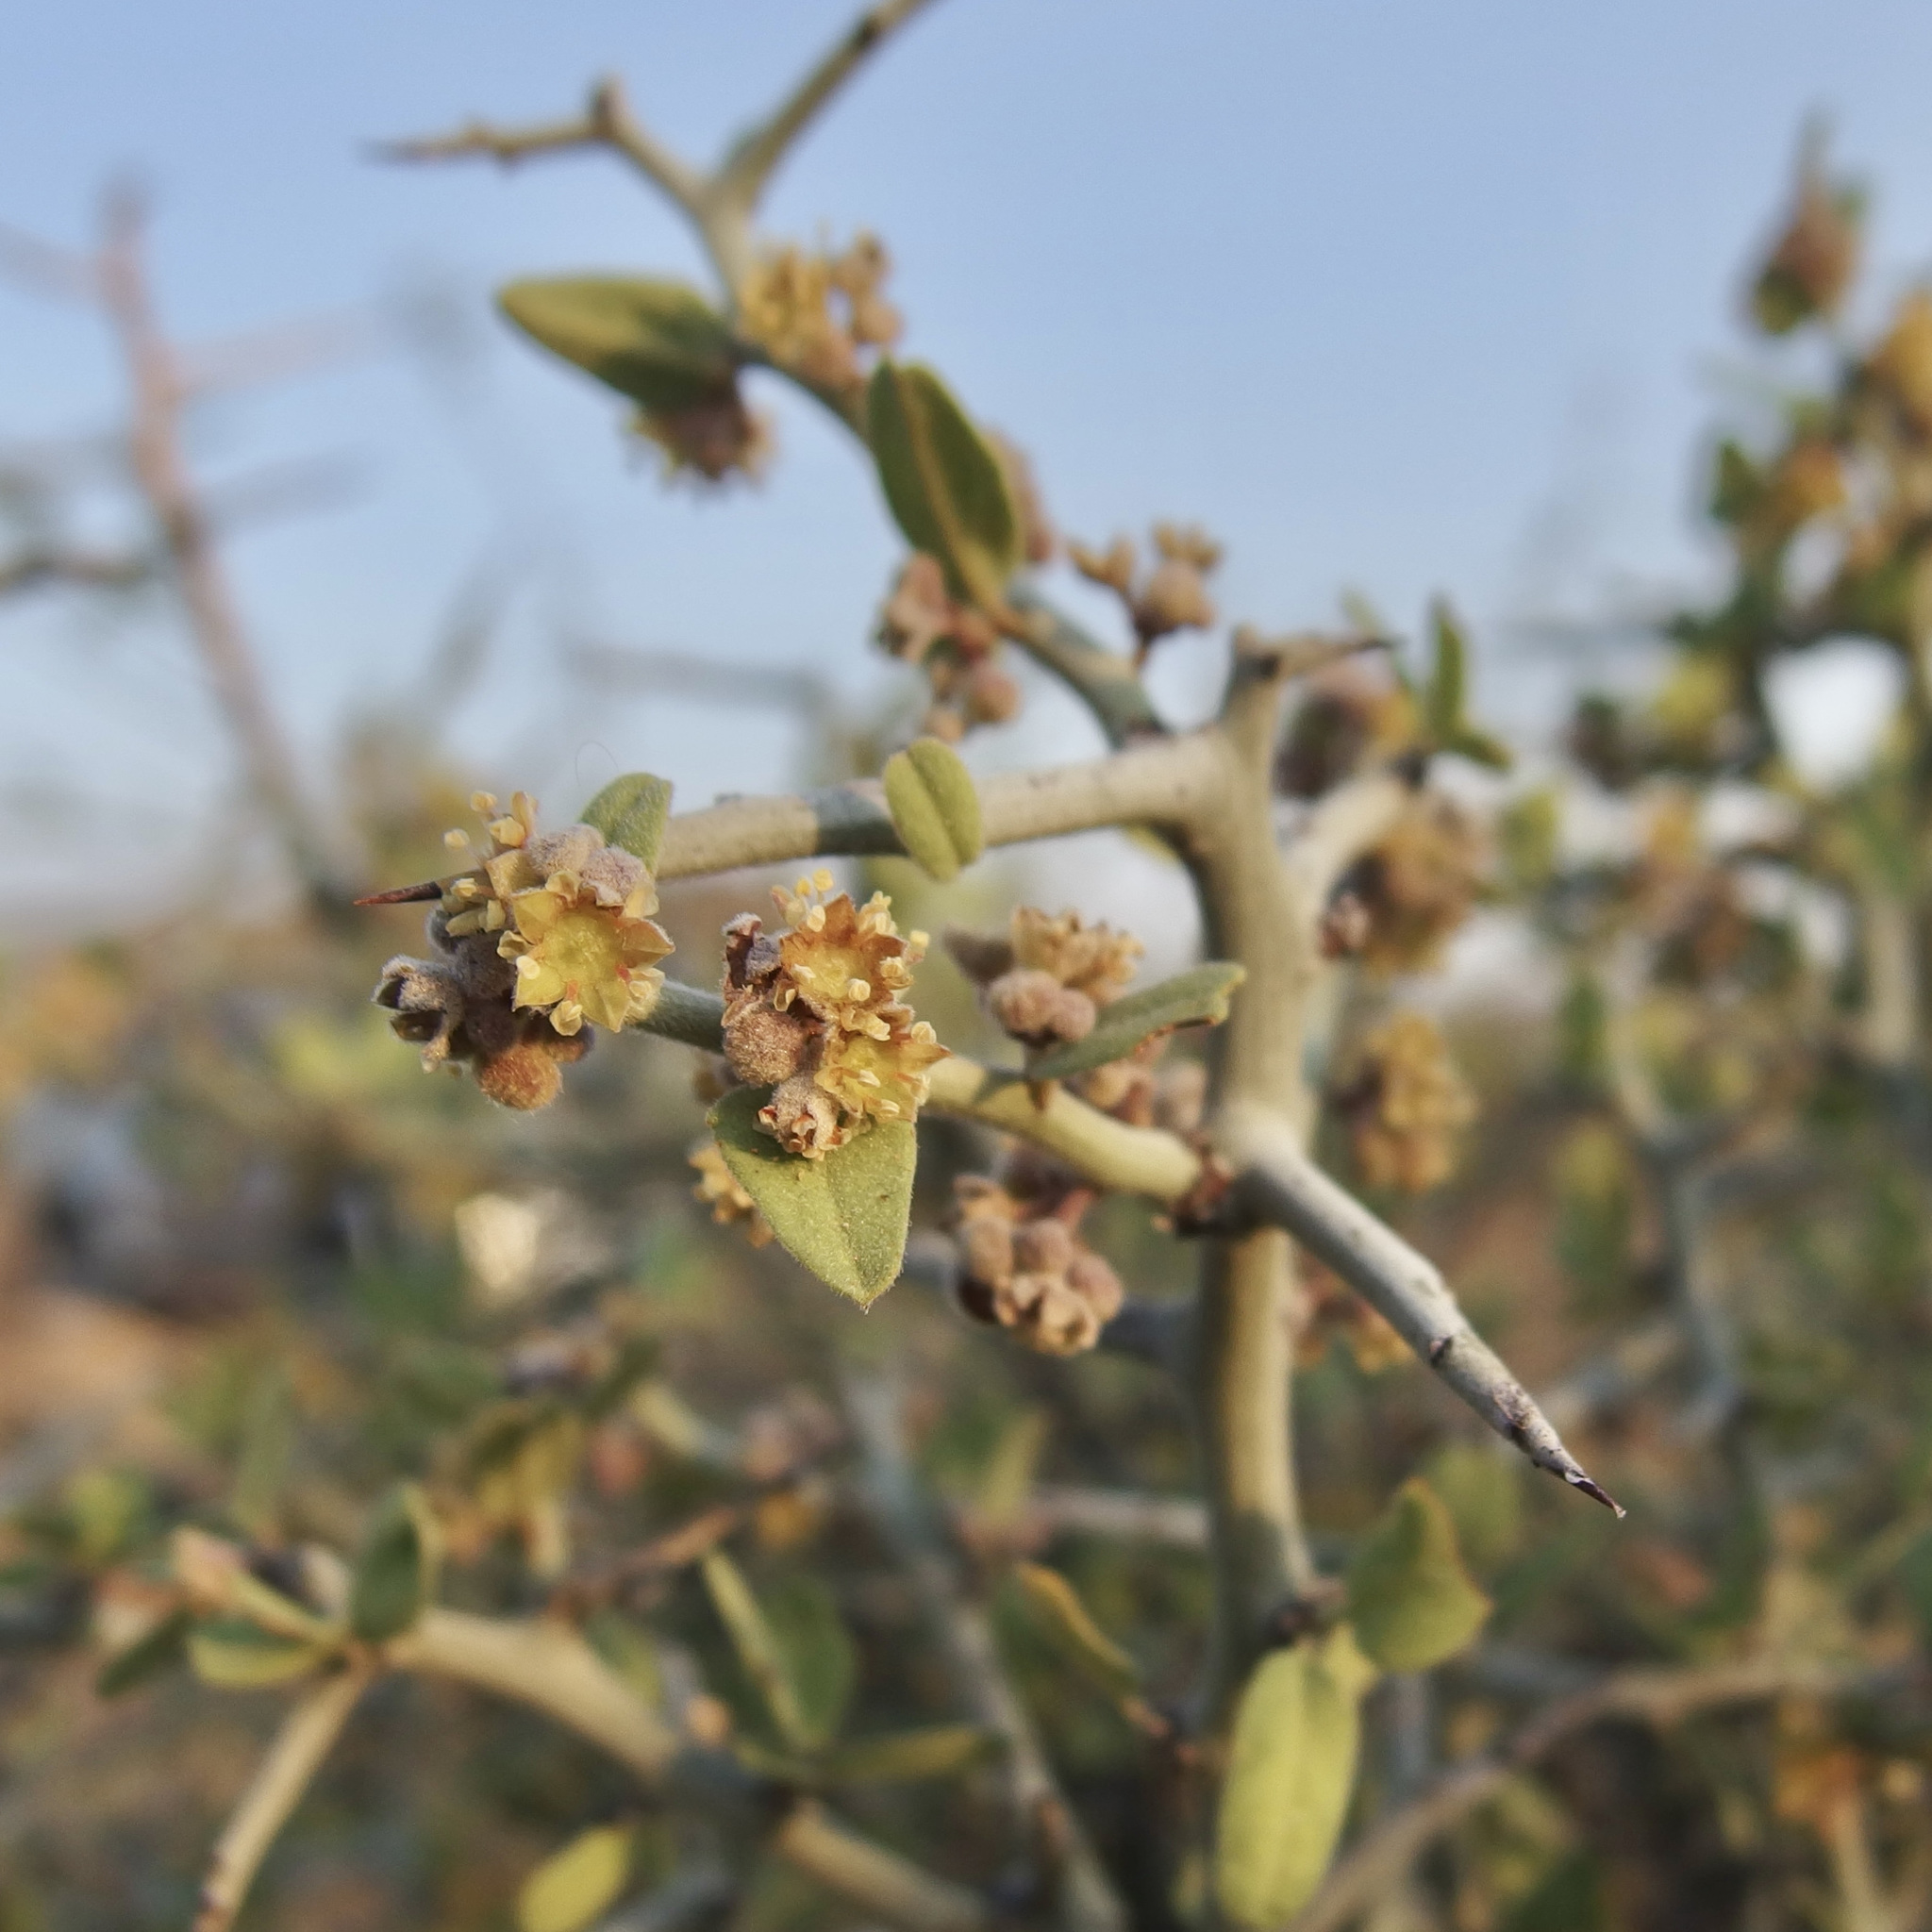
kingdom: Plantae
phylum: Tracheophyta
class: Magnoliopsida
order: Rosales
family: Rhamnaceae
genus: Sarcomphalus
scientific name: Sarcomphalus obtusifolius
